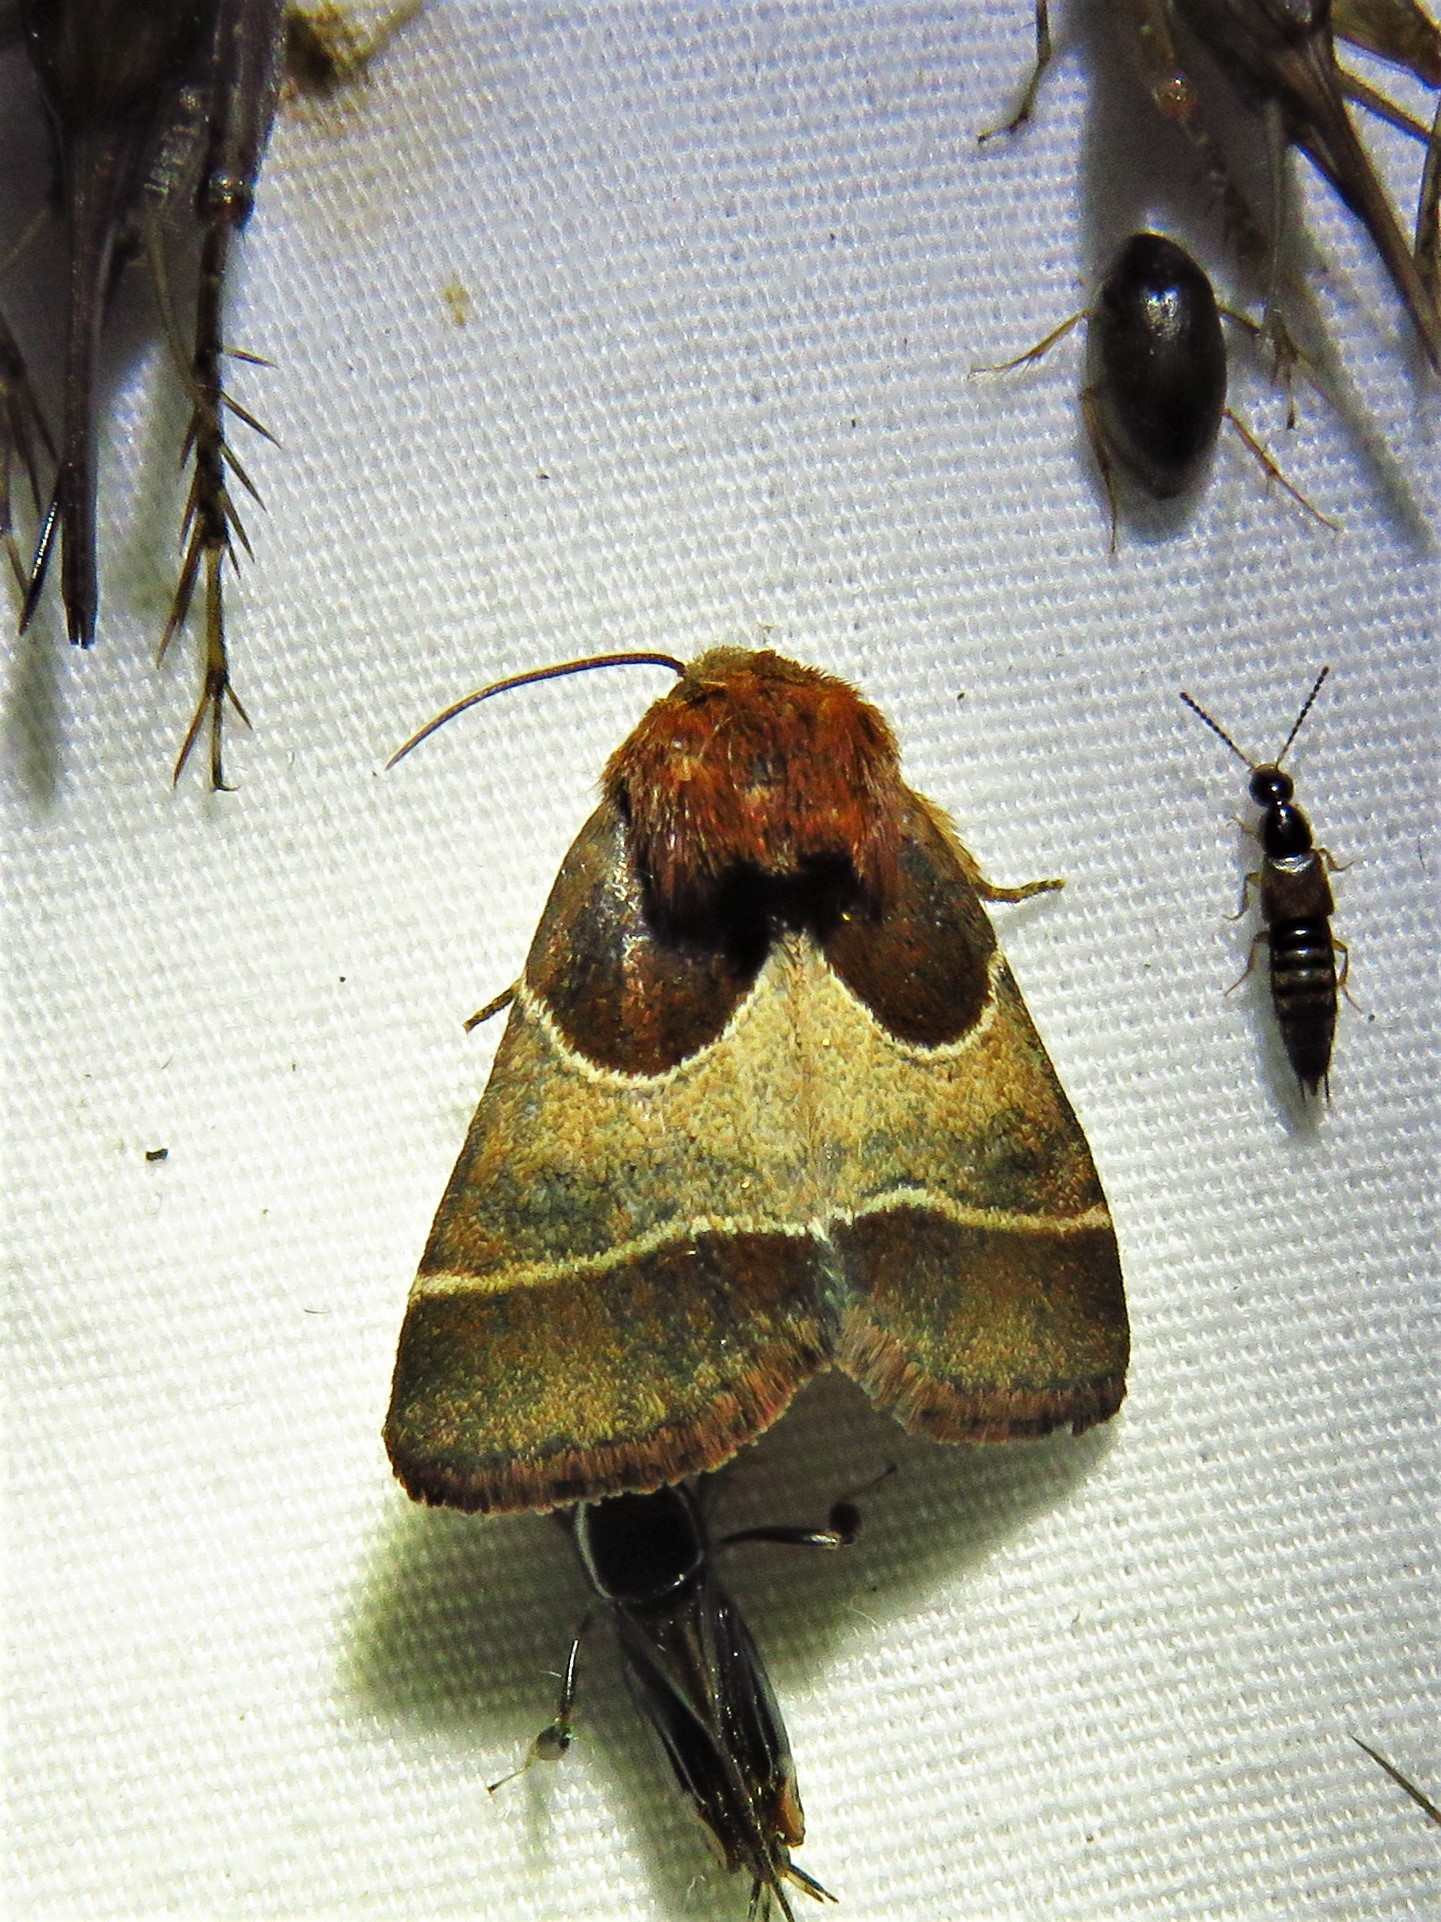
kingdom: Animalia
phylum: Arthropoda
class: Insecta
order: Lepidoptera
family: Noctuidae
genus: Schinia
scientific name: Schinia arcigera
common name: Arcigera flower moth
